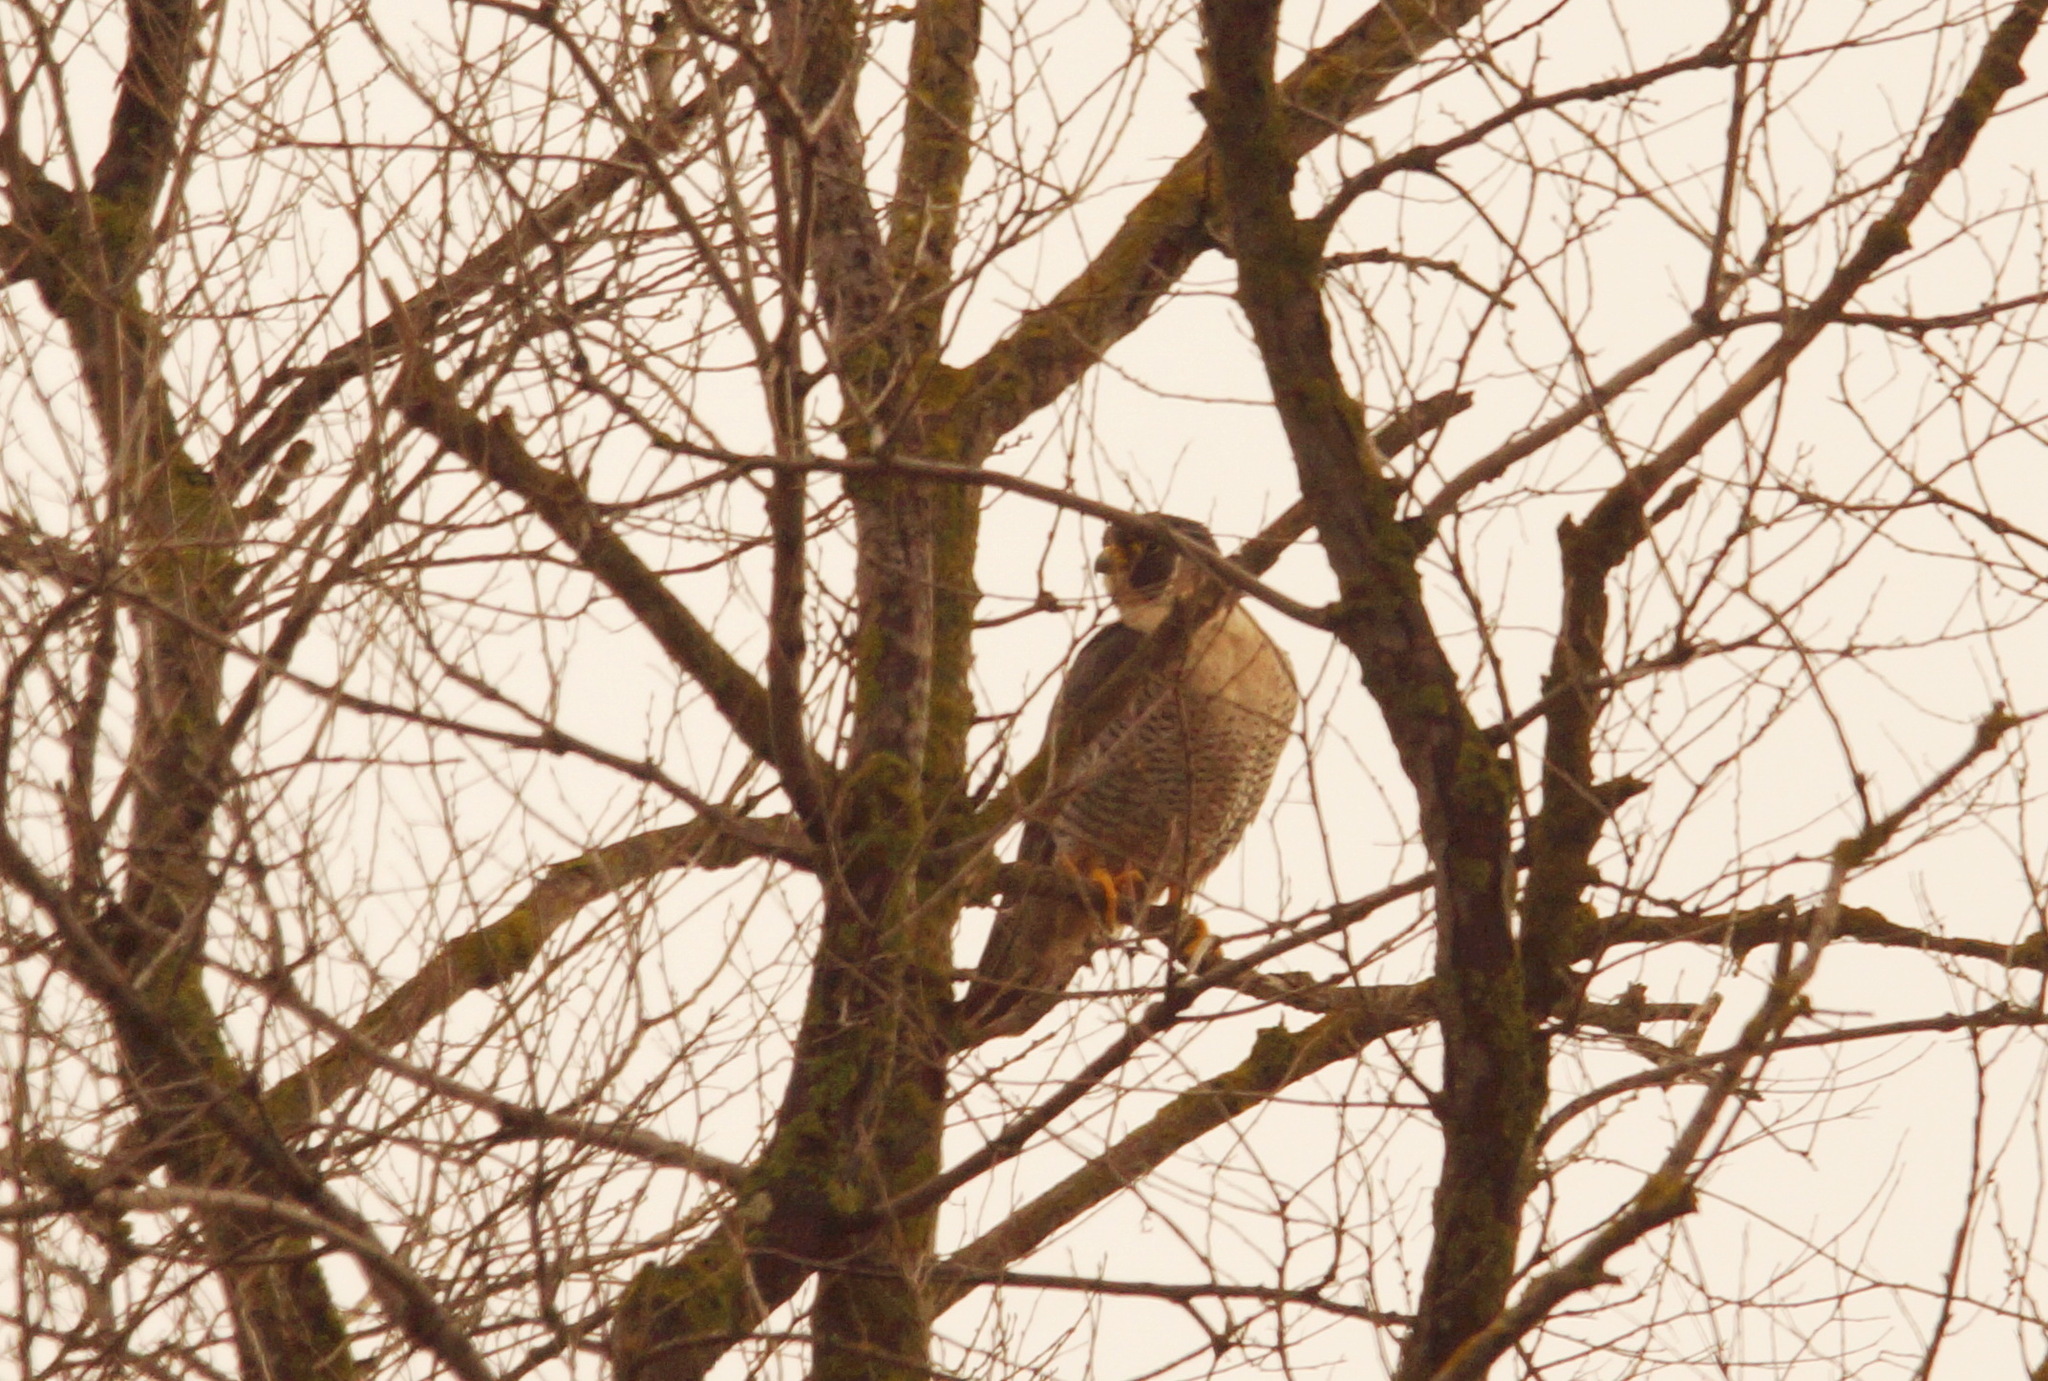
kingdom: Animalia
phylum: Chordata
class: Aves
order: Falconiformes
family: Falconidae
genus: Falco
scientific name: Falco peregrinus
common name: Peregrine falcon
